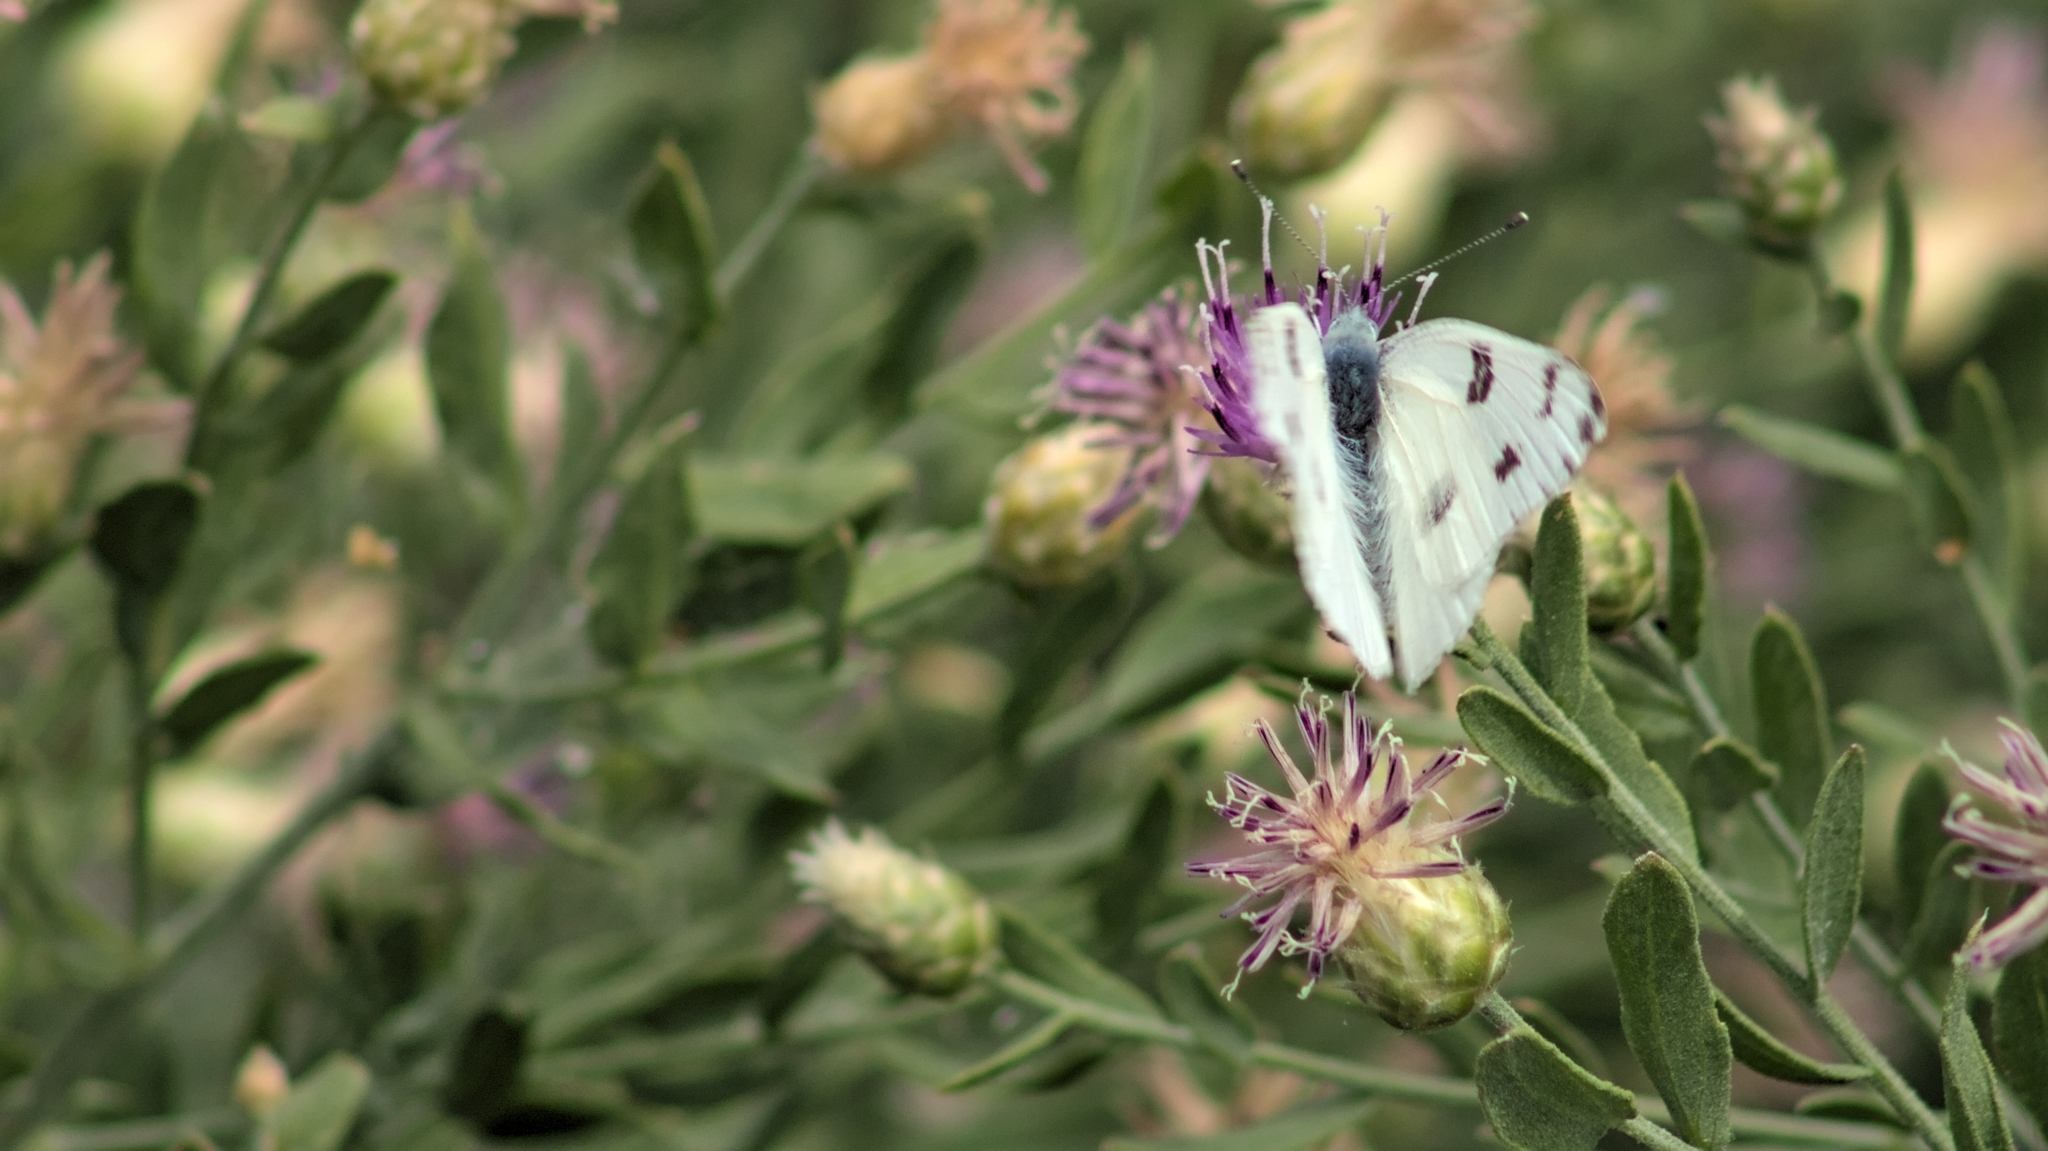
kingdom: Plantae
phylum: Tracheophyta
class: Magnoliopsida
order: Asterales
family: Asteraceae
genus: Leuzea
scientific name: Leuzea repens
